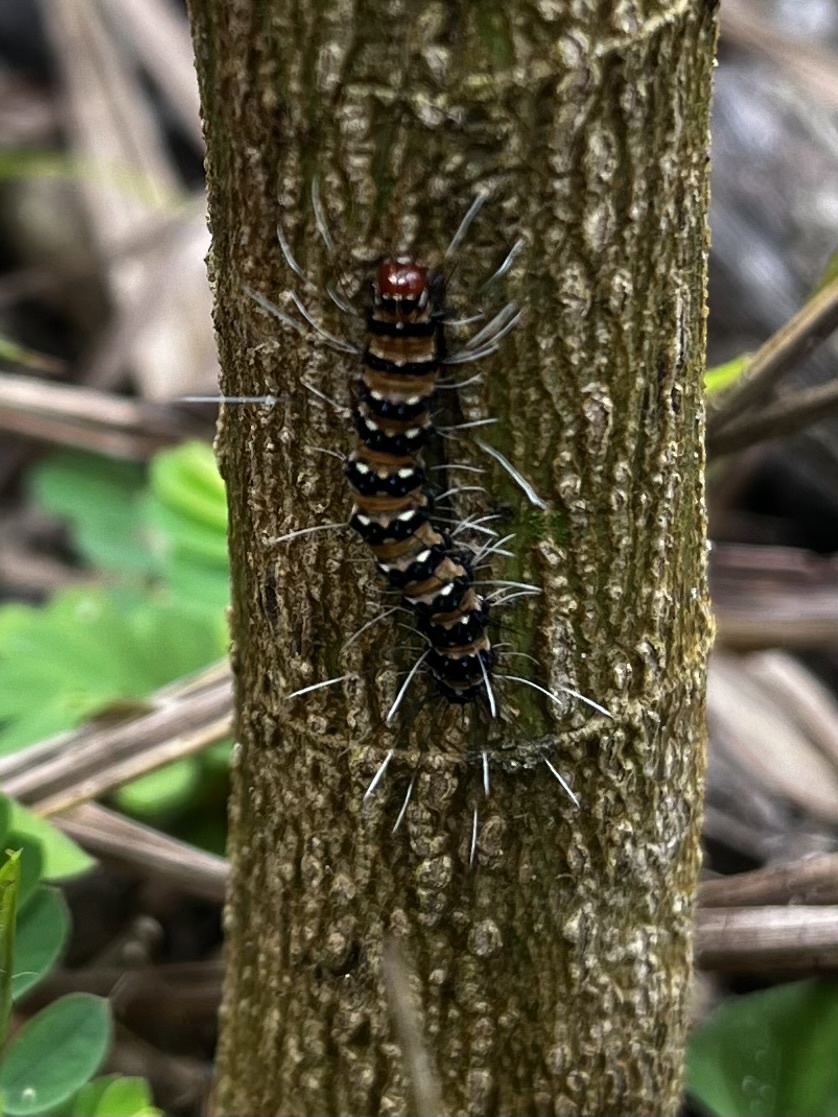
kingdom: Animalia
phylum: Arthropoda
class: Insecta
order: Lepidoptera
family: Erebidae
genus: Utetheisa
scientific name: Utetheisa ornatrix
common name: Beautiful utetheisa
